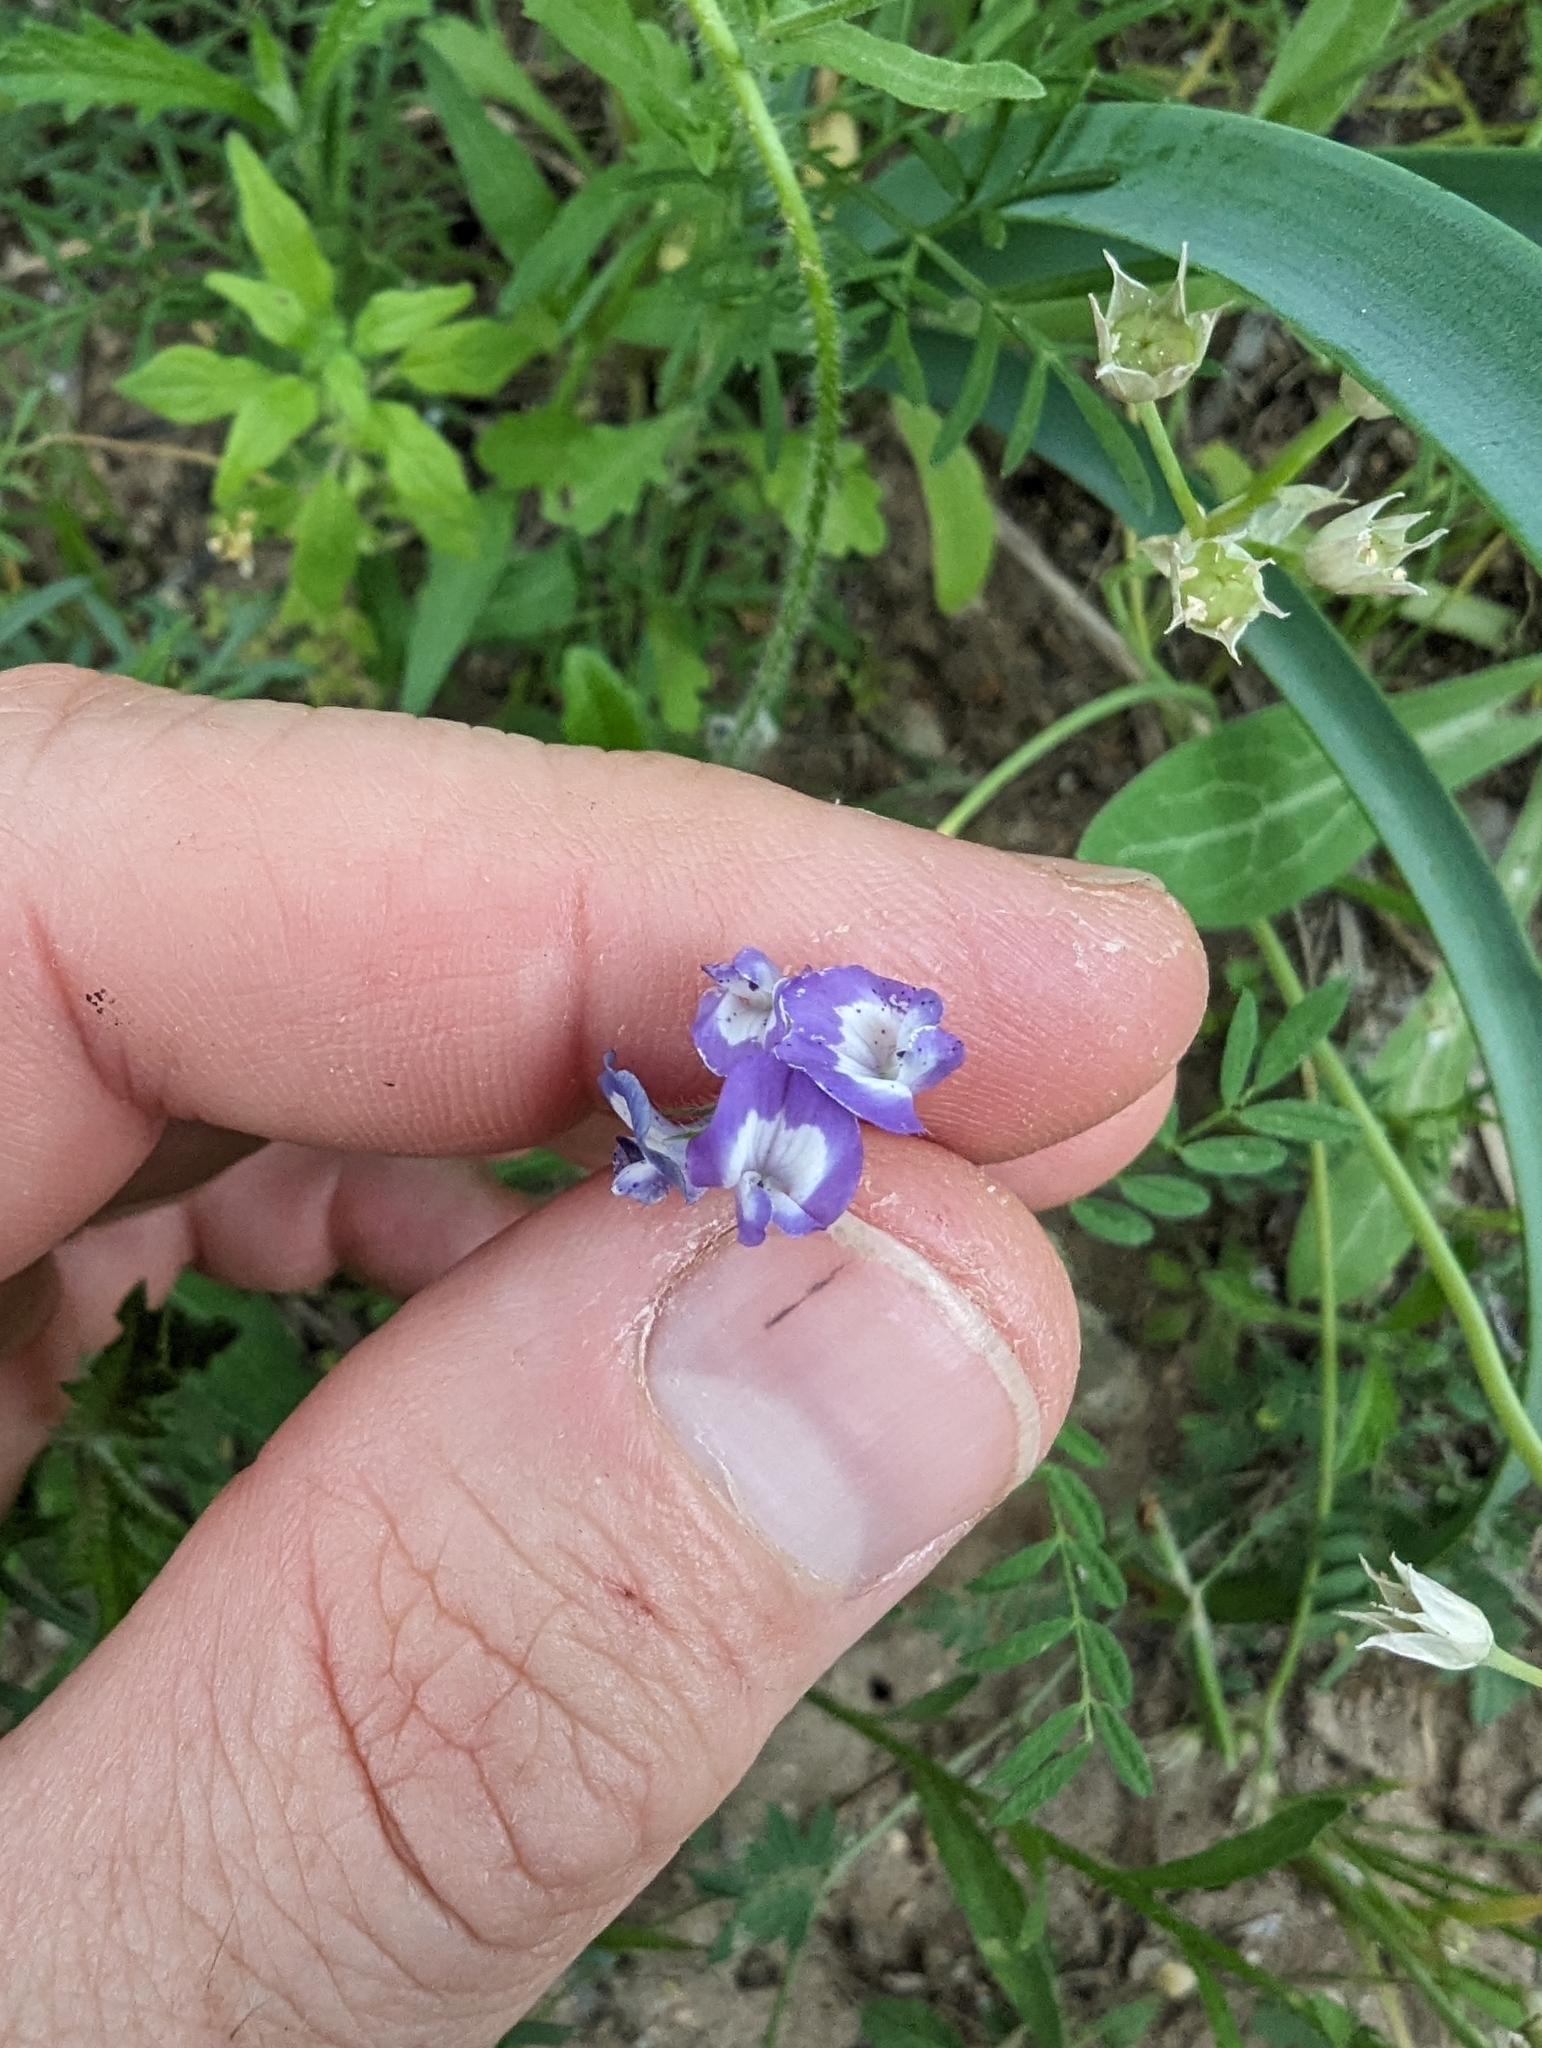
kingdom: Plantae
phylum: Tracheophyta
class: Magnoliopsida
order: Fabales
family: Fabaceae
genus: Astragalus
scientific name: Astragalus nuttallianus
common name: Smallflowered milkvetch
